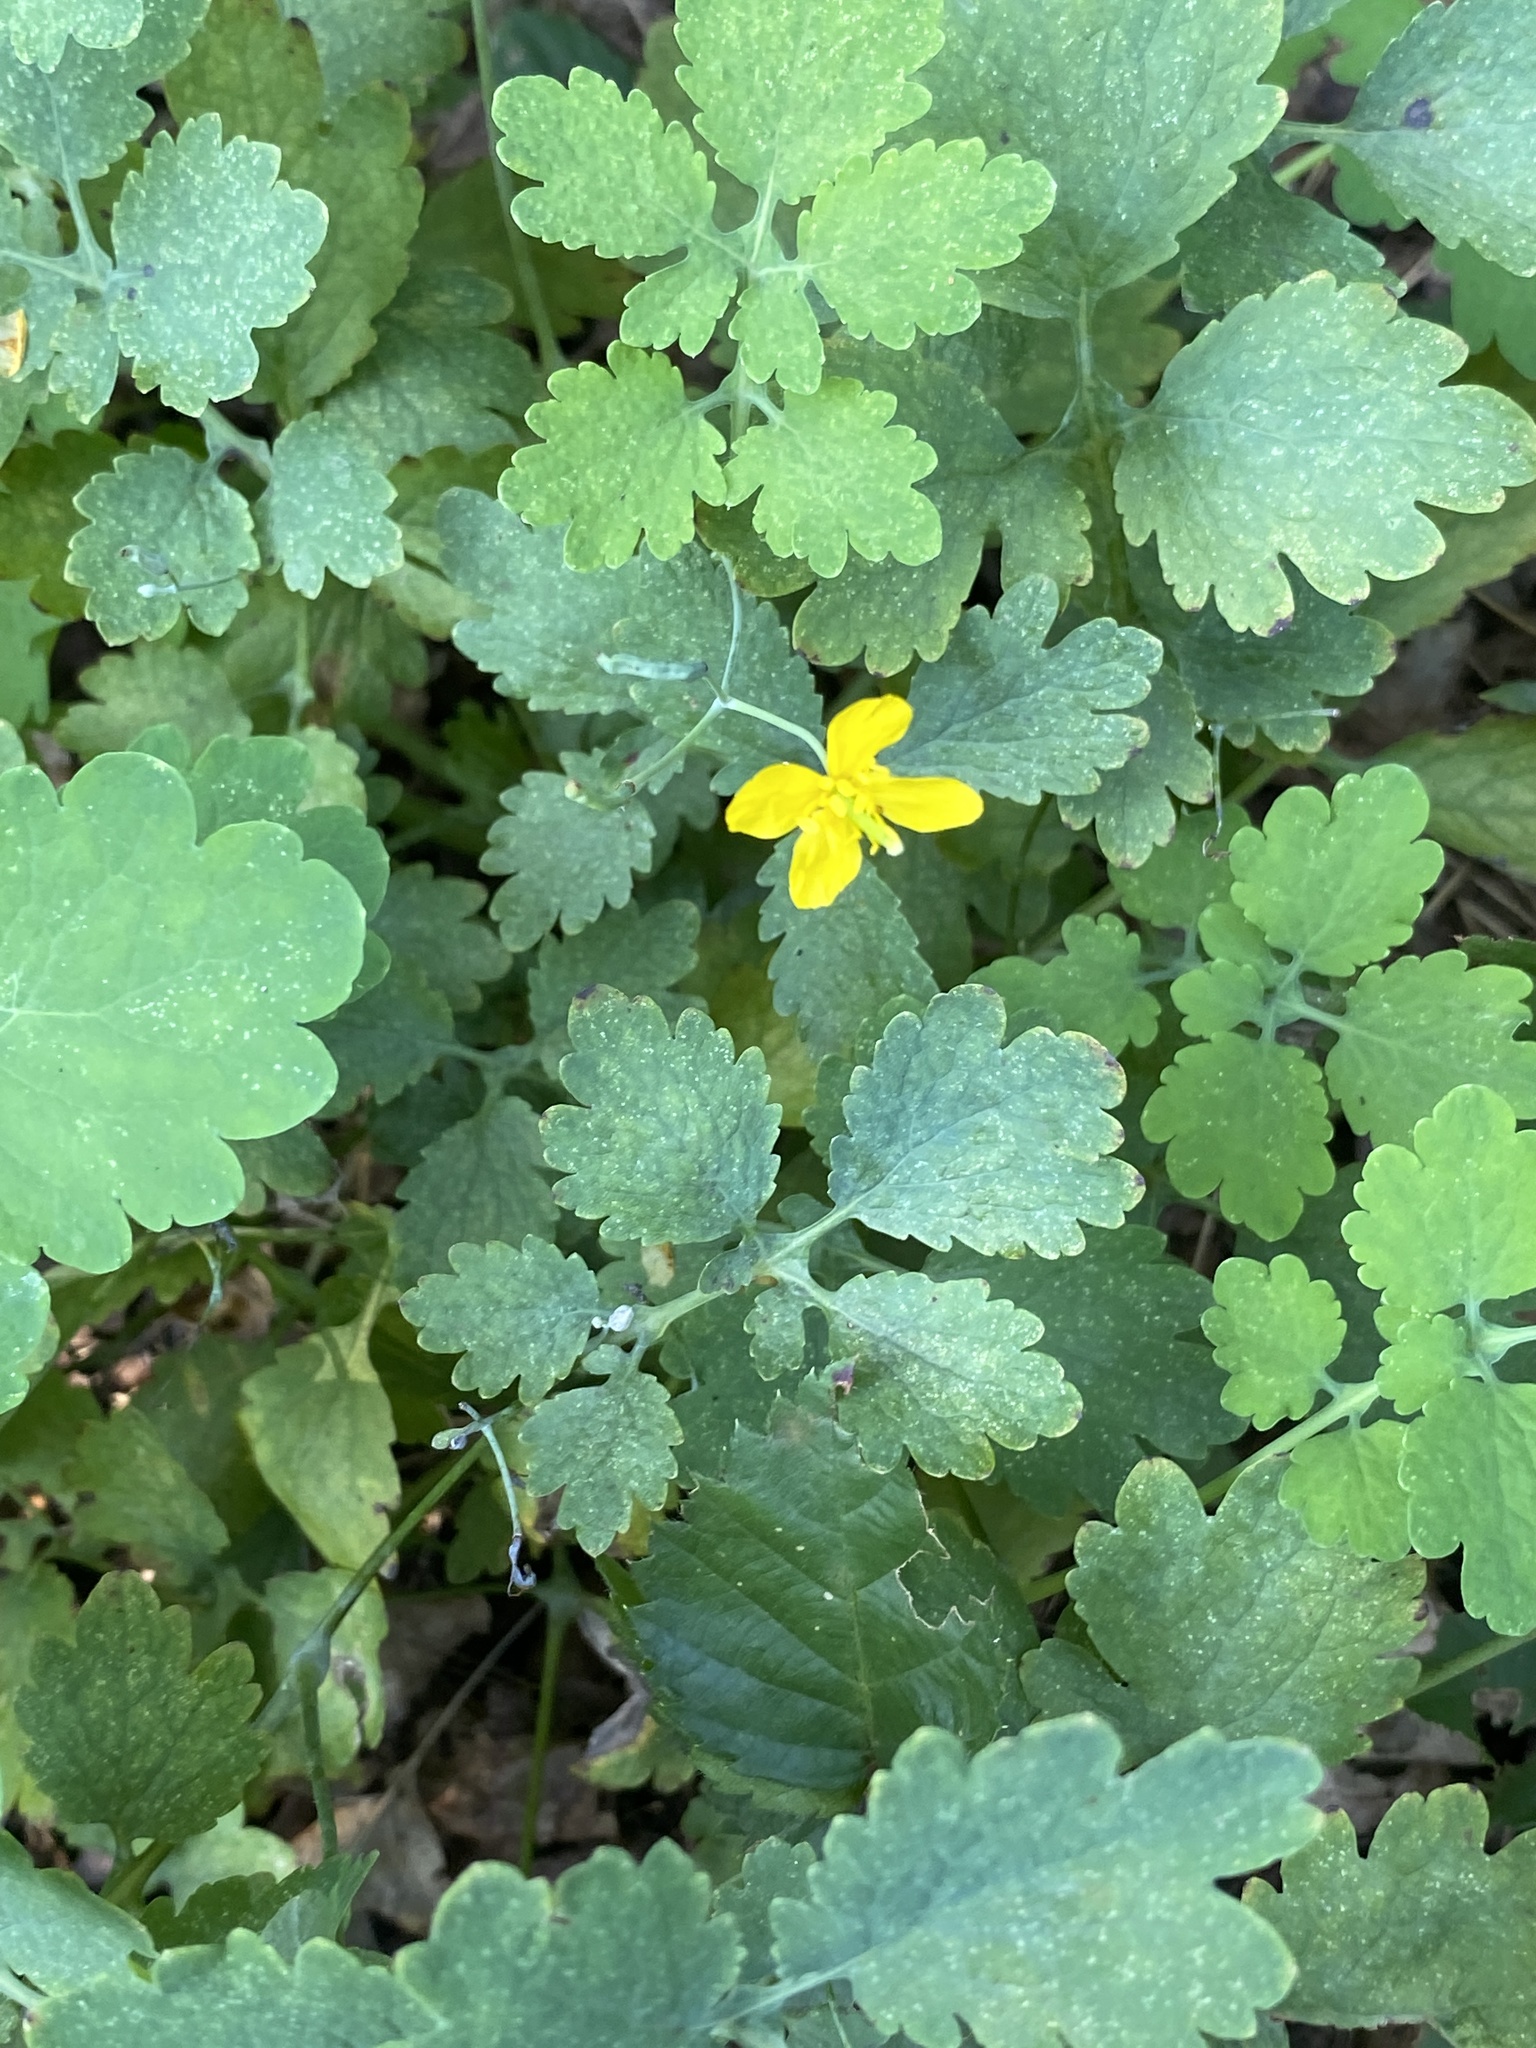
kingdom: Plantae
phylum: Tracheophyta
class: Magnoliopsida
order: Ranunculales
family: Papaveraceae
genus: Chelidonium
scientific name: Chelidonium majus
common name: Greater celandine
